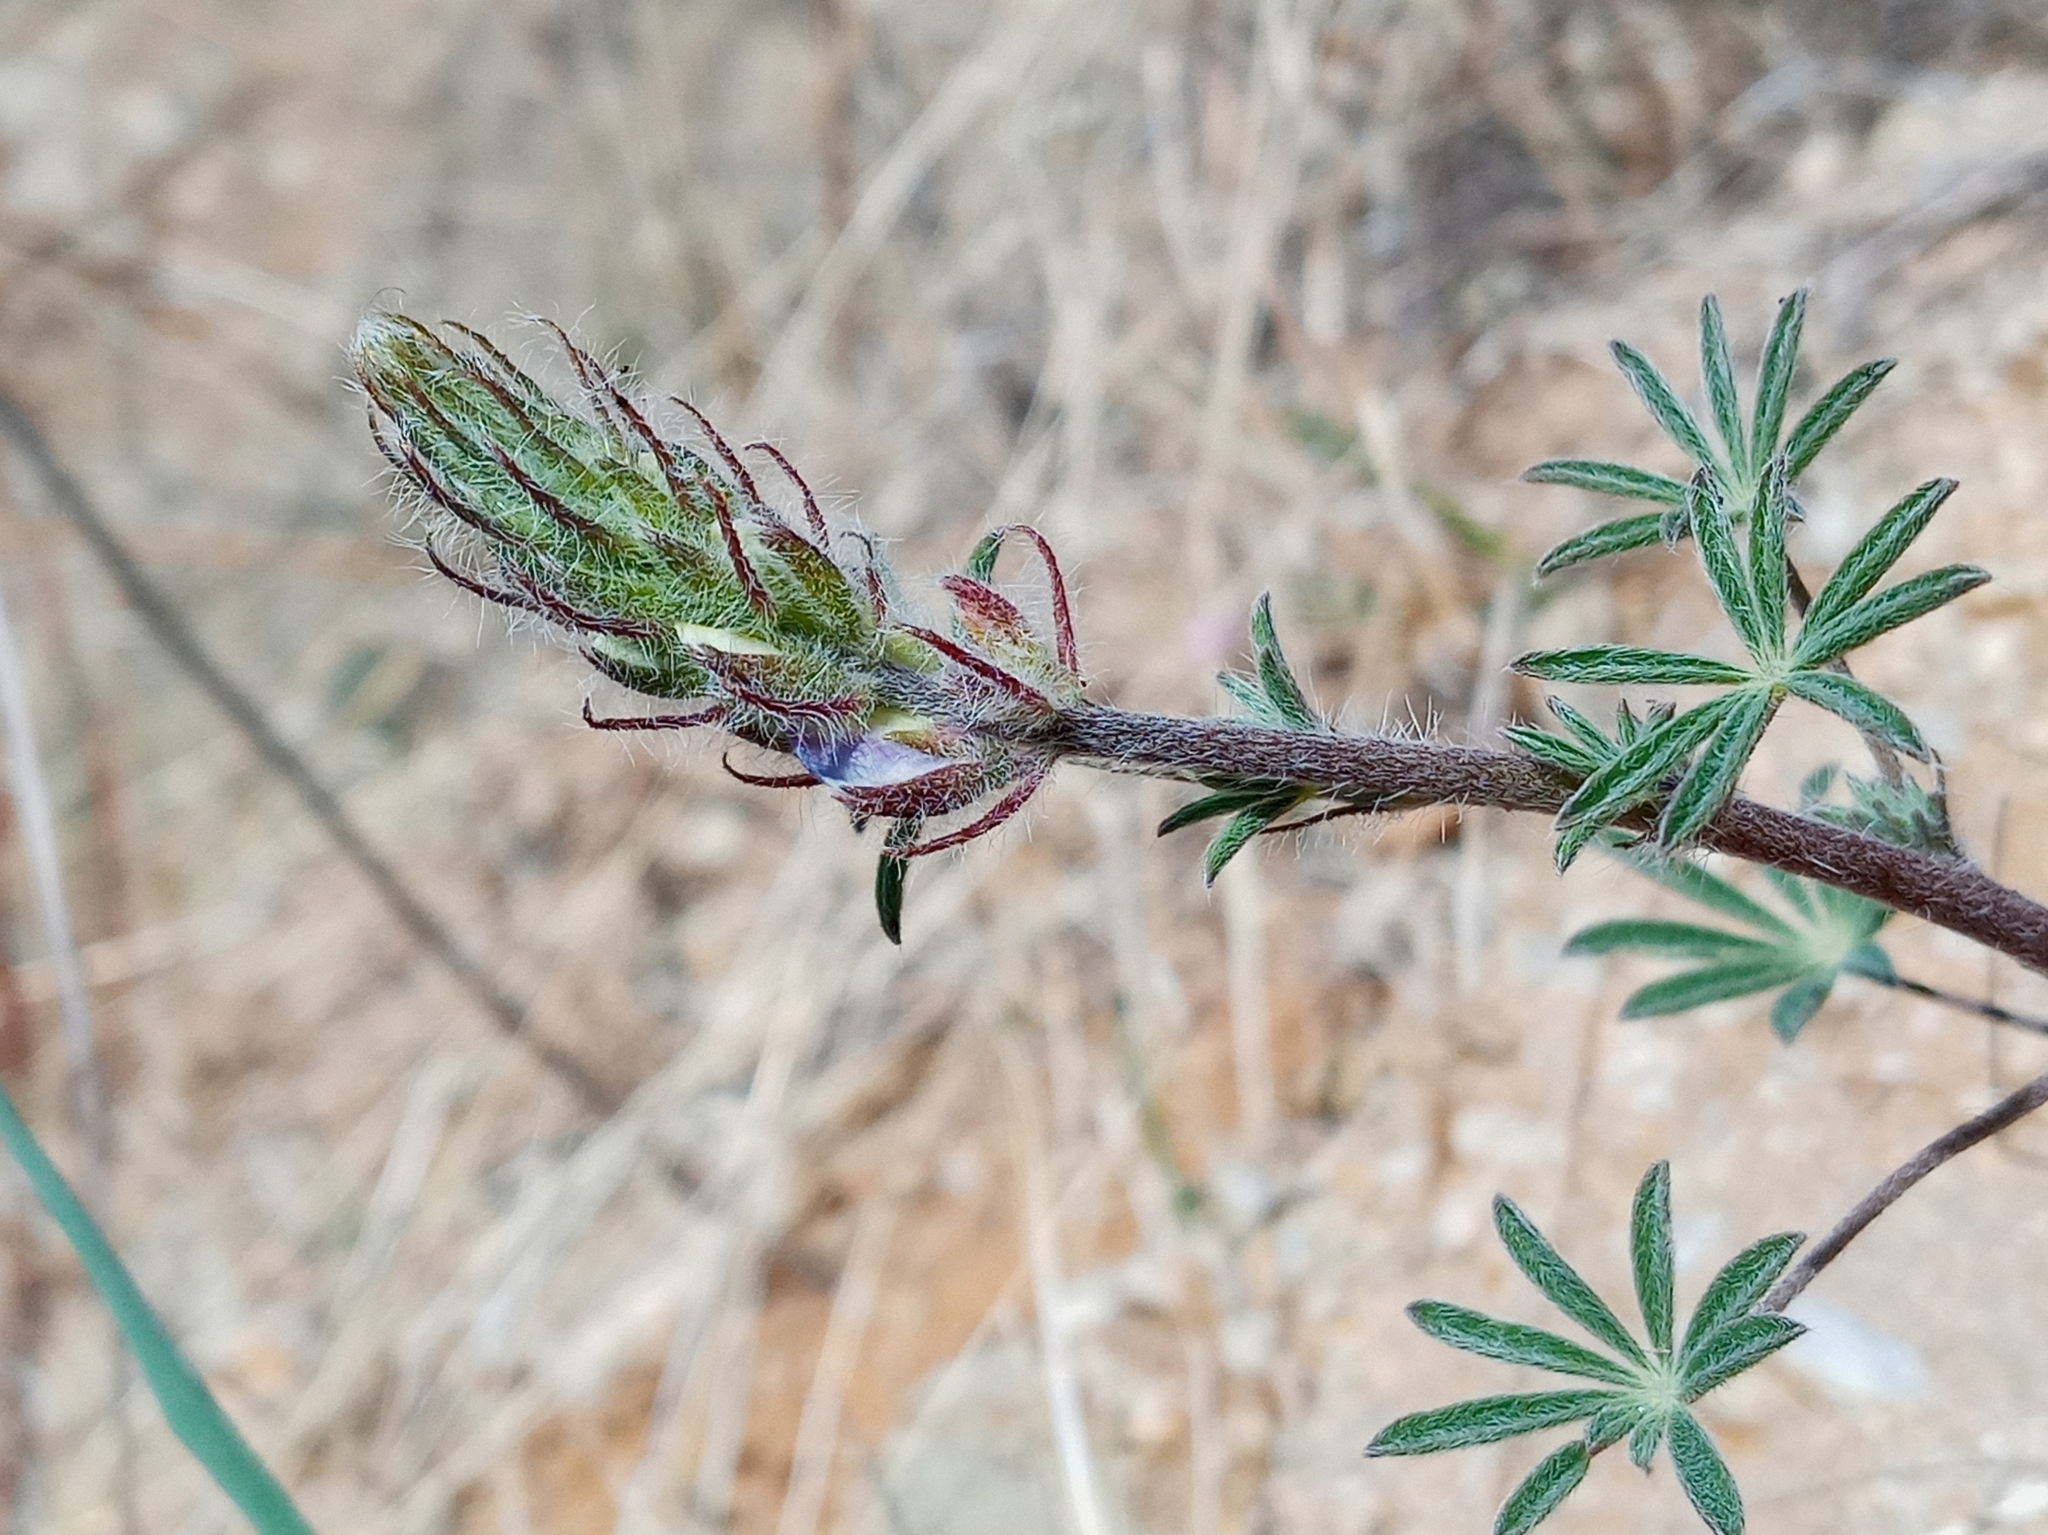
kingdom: Plantae
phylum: Tracheophyta
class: Magnoliopsida
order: Fabales
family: Fabaceae
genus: Lupinus
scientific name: Lupinus sparsiflorus
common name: Coulter's lupine
